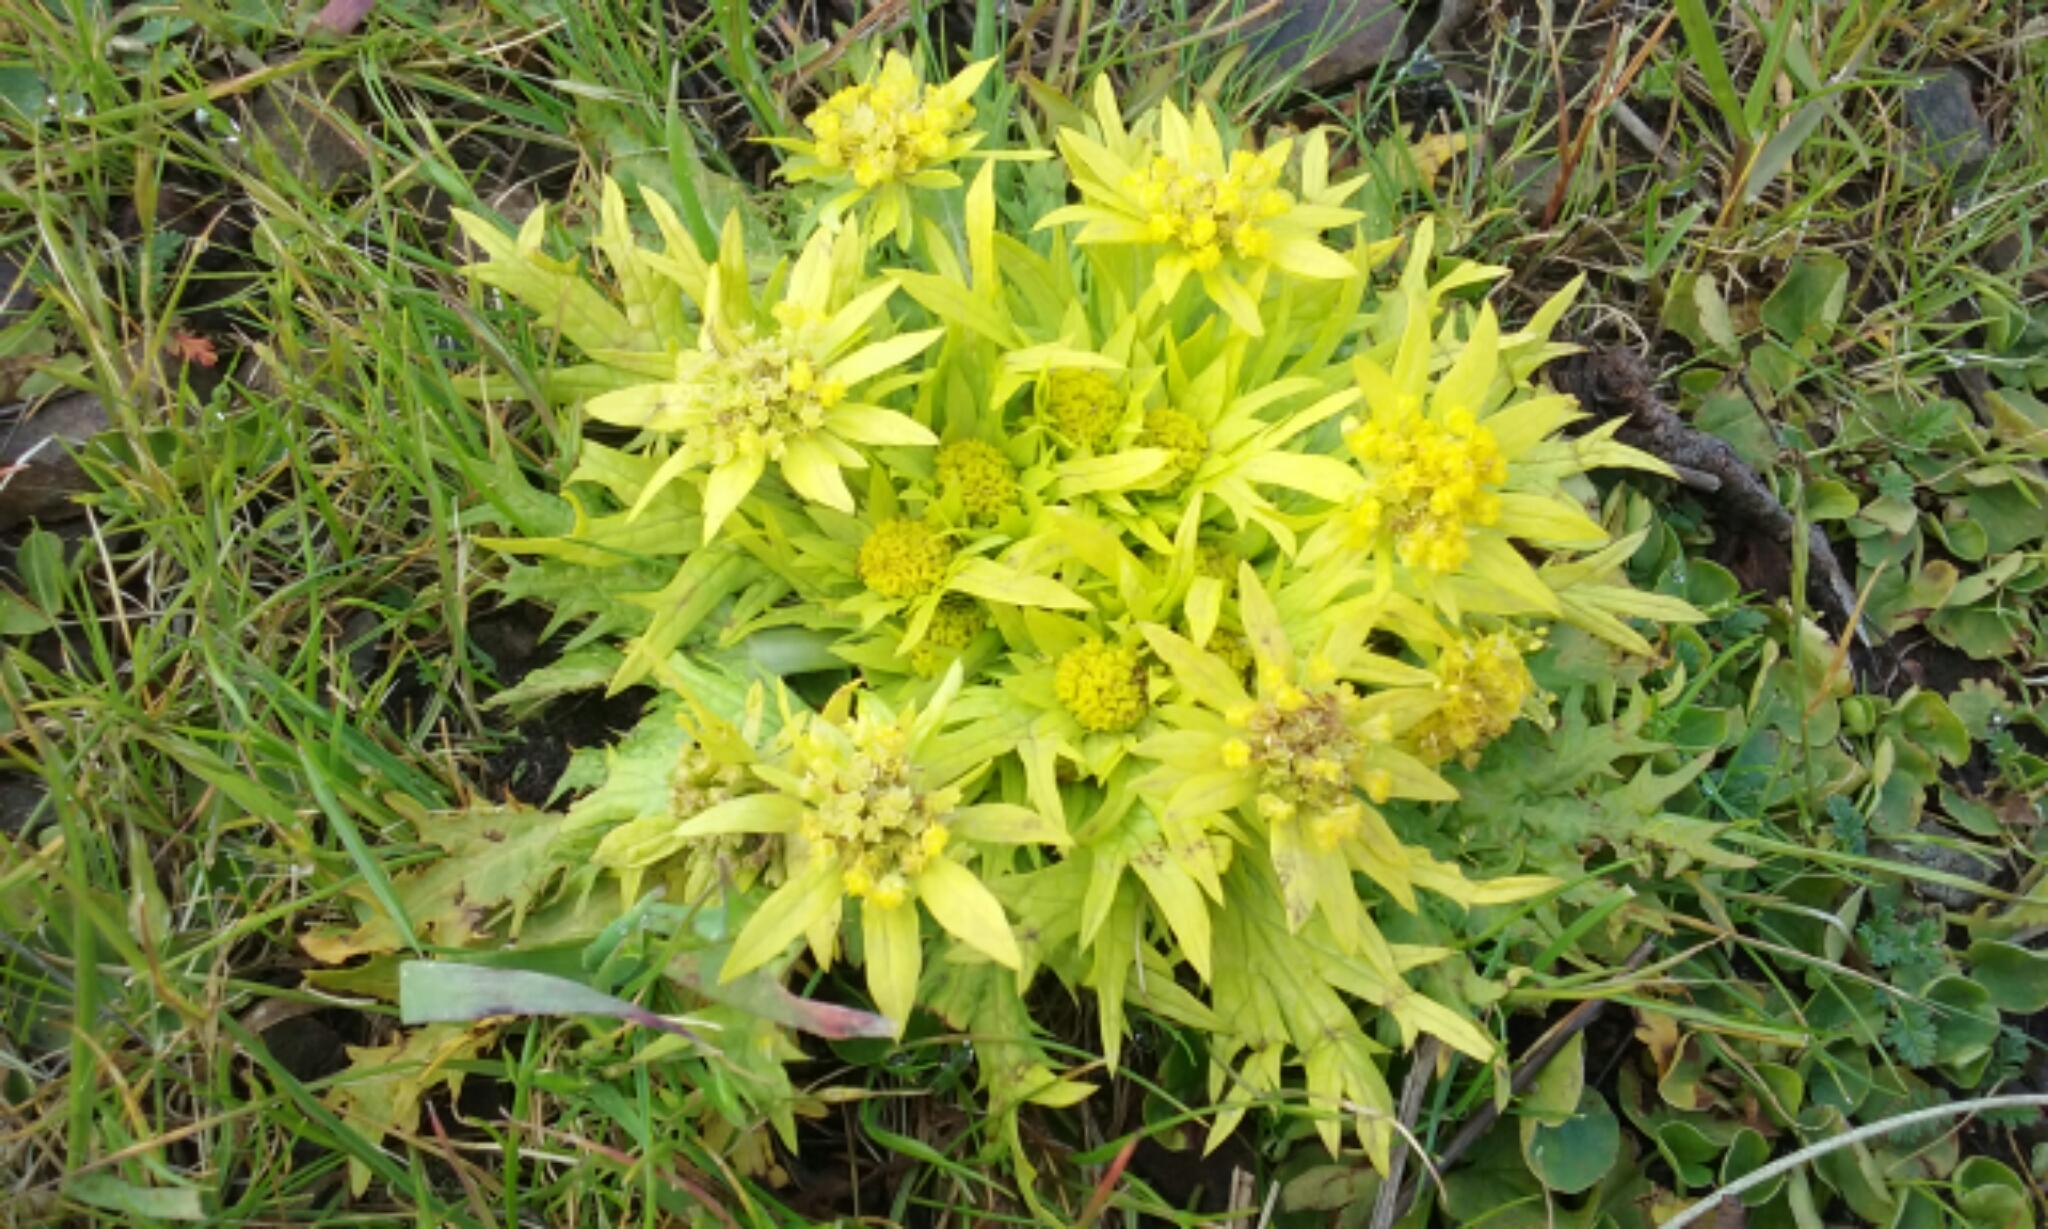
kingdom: Plantae
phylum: Tracheophyta
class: Magnoliopsida
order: Apiales
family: Apiaceae
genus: Sanicula
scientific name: Sanicula arctopoides
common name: Footsteps-of-spring
